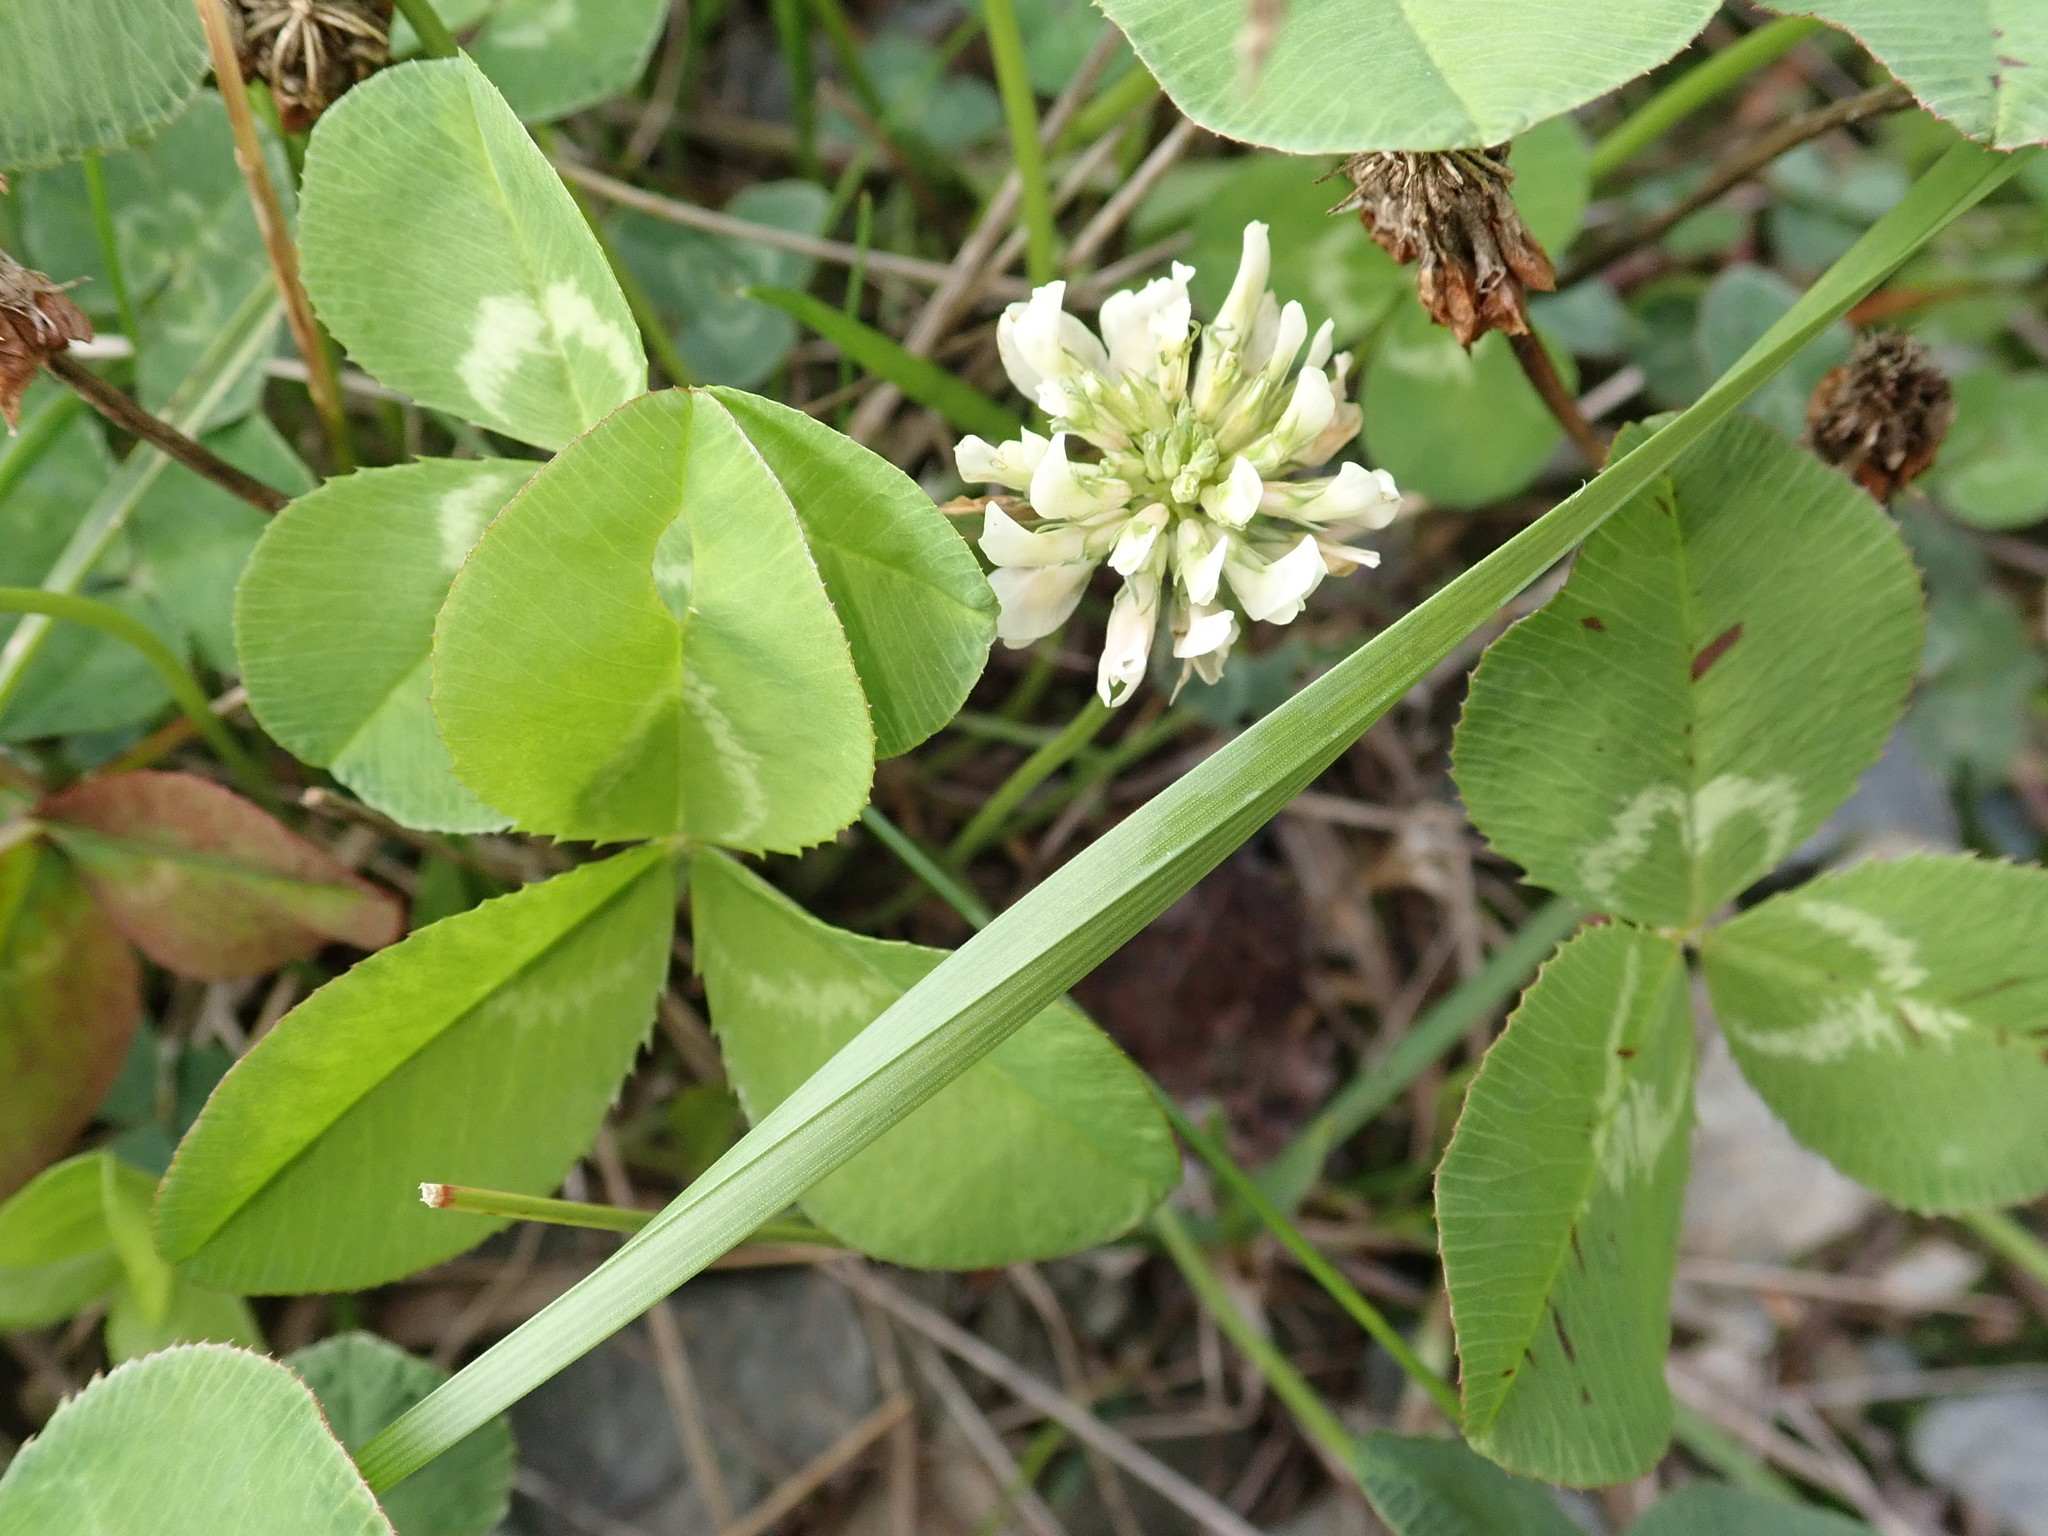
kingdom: Plantae
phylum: Tracheophyta
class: Magnoliopsida
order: Fabales
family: Fabaceae
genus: Trifolium
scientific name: Trifolium repens
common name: White clover
